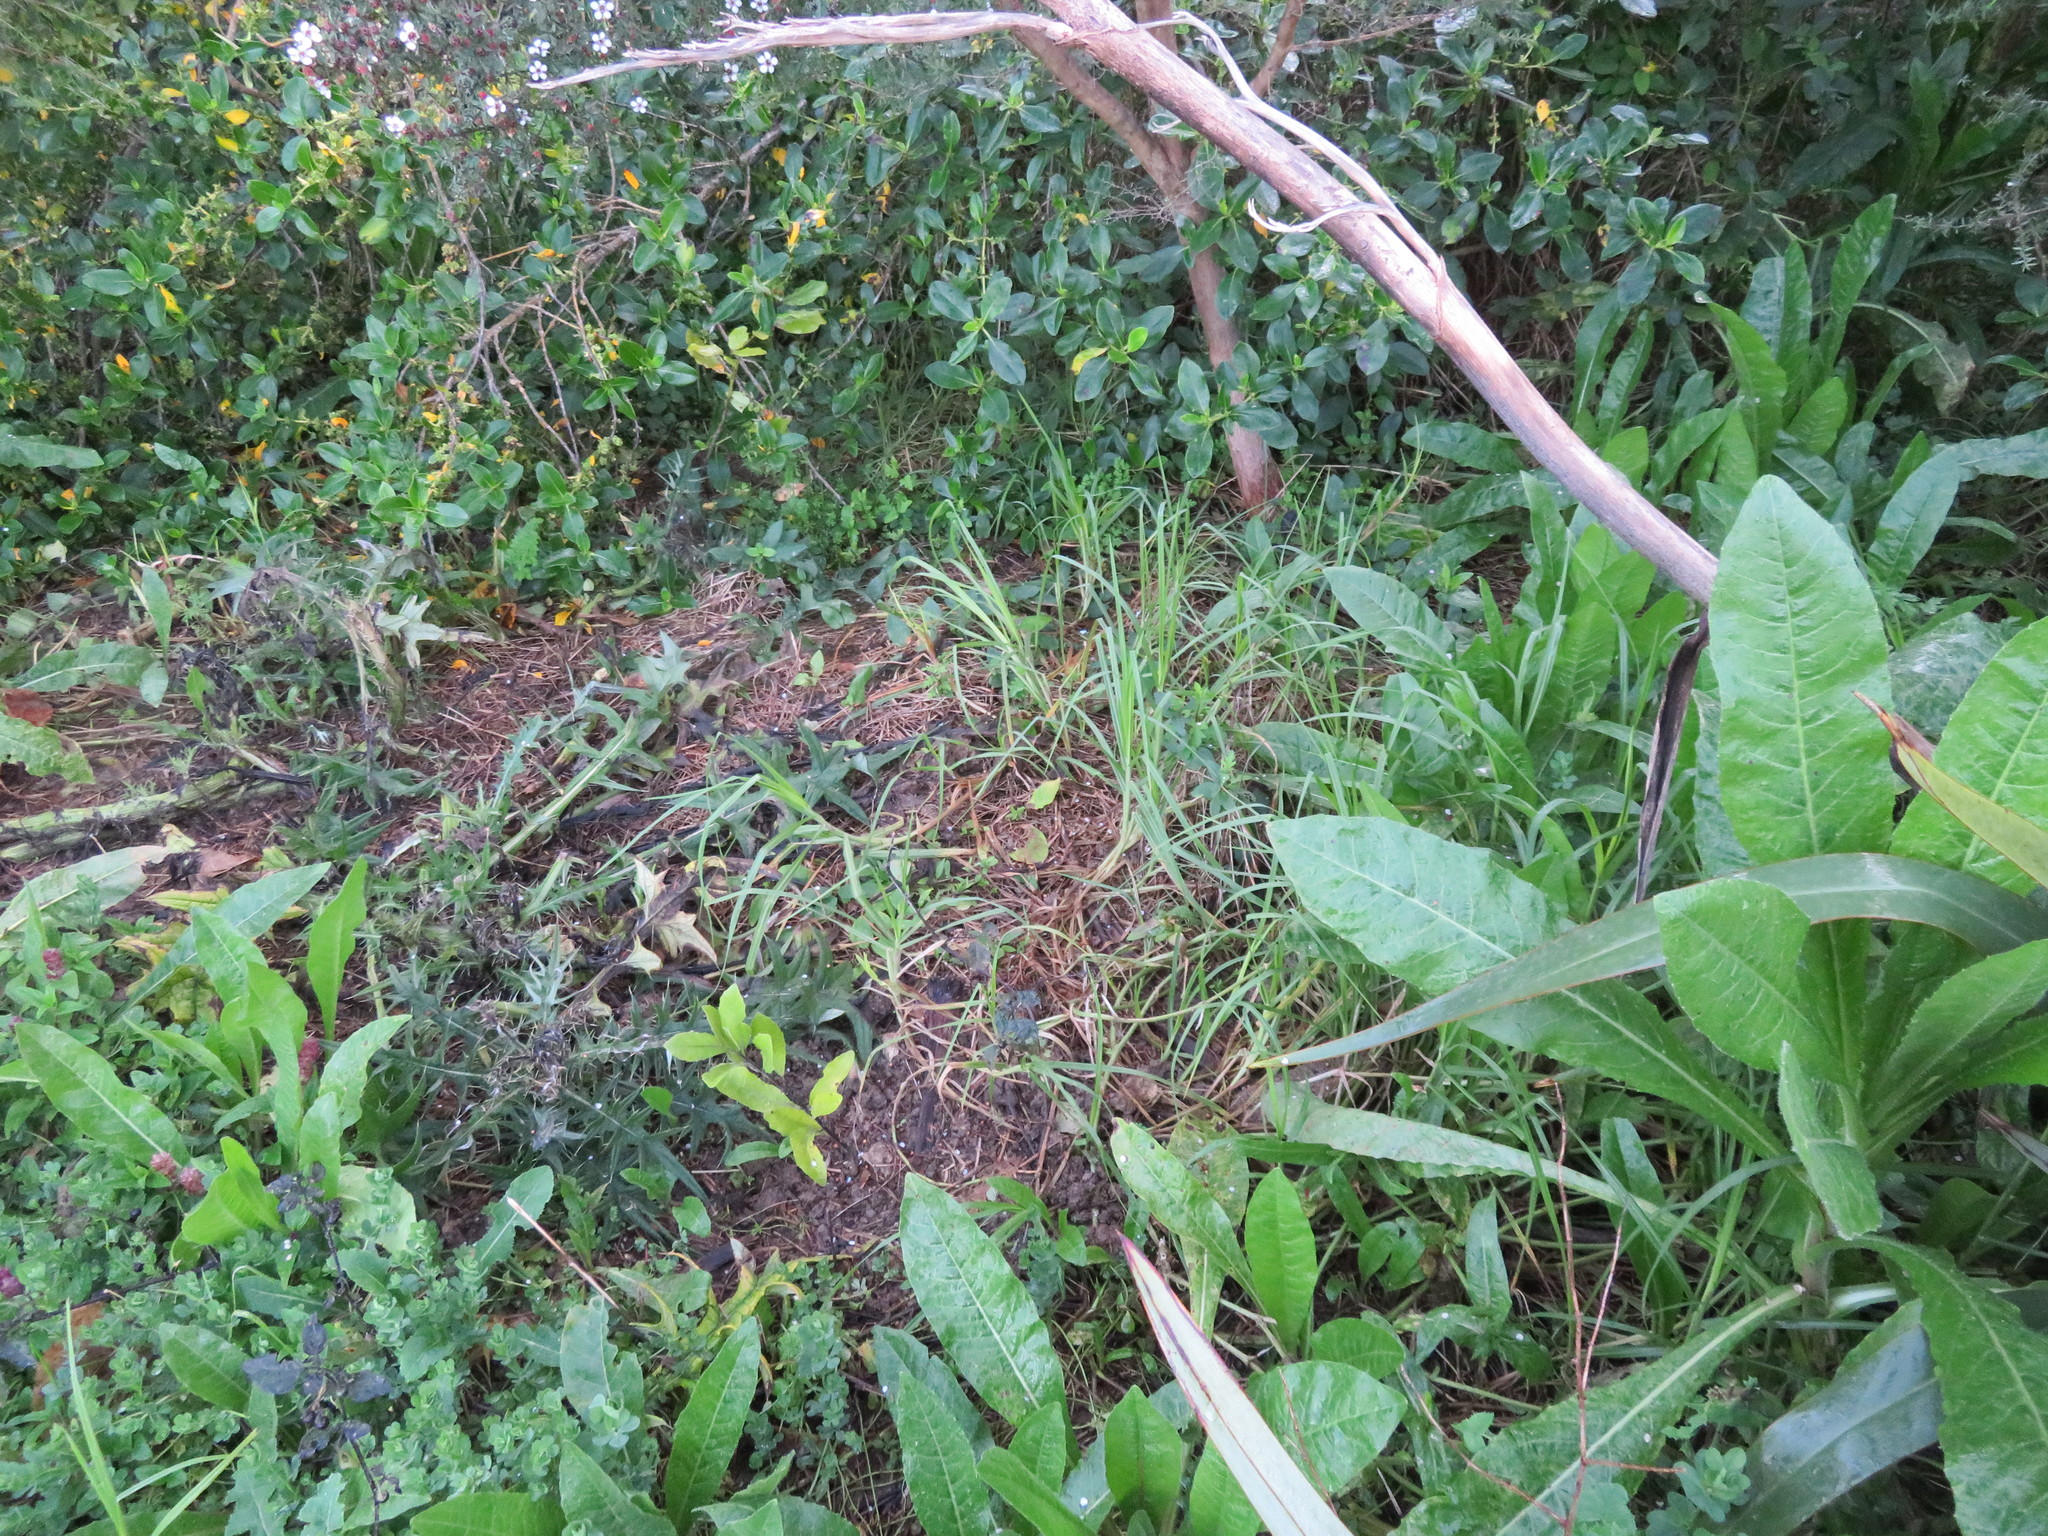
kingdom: Plantae
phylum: Tracheophyta
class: Liliopsida
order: Poales
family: Poaceae
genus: Cenchrus
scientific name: Cenchrus clandestinus
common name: Kikuyugrass
